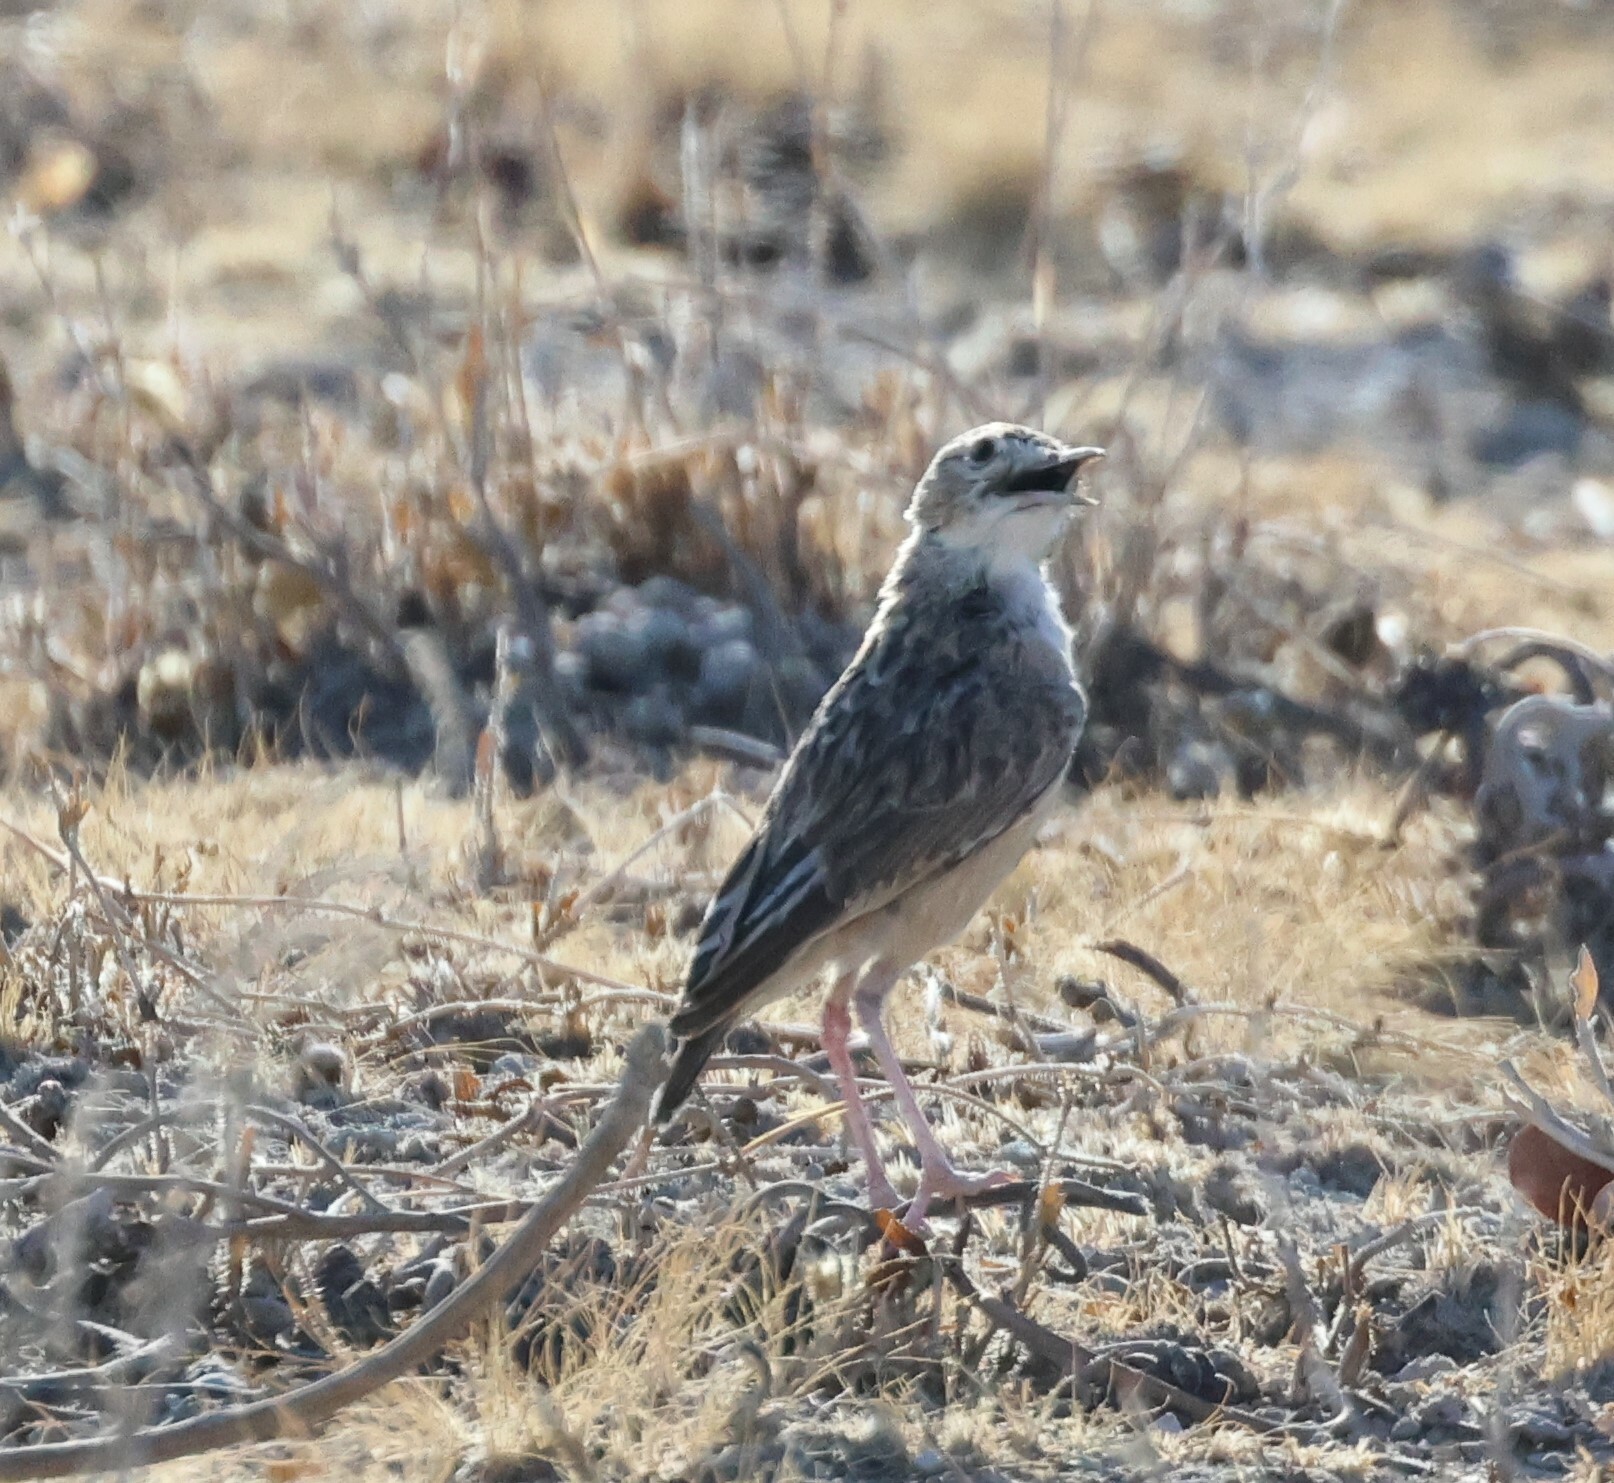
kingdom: Animalia
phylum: Chordata
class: Aves
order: Passeriformes
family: Alaudidae
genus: Chersomanes
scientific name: Chersomanes albofasciata
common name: Spike-heeled lark
